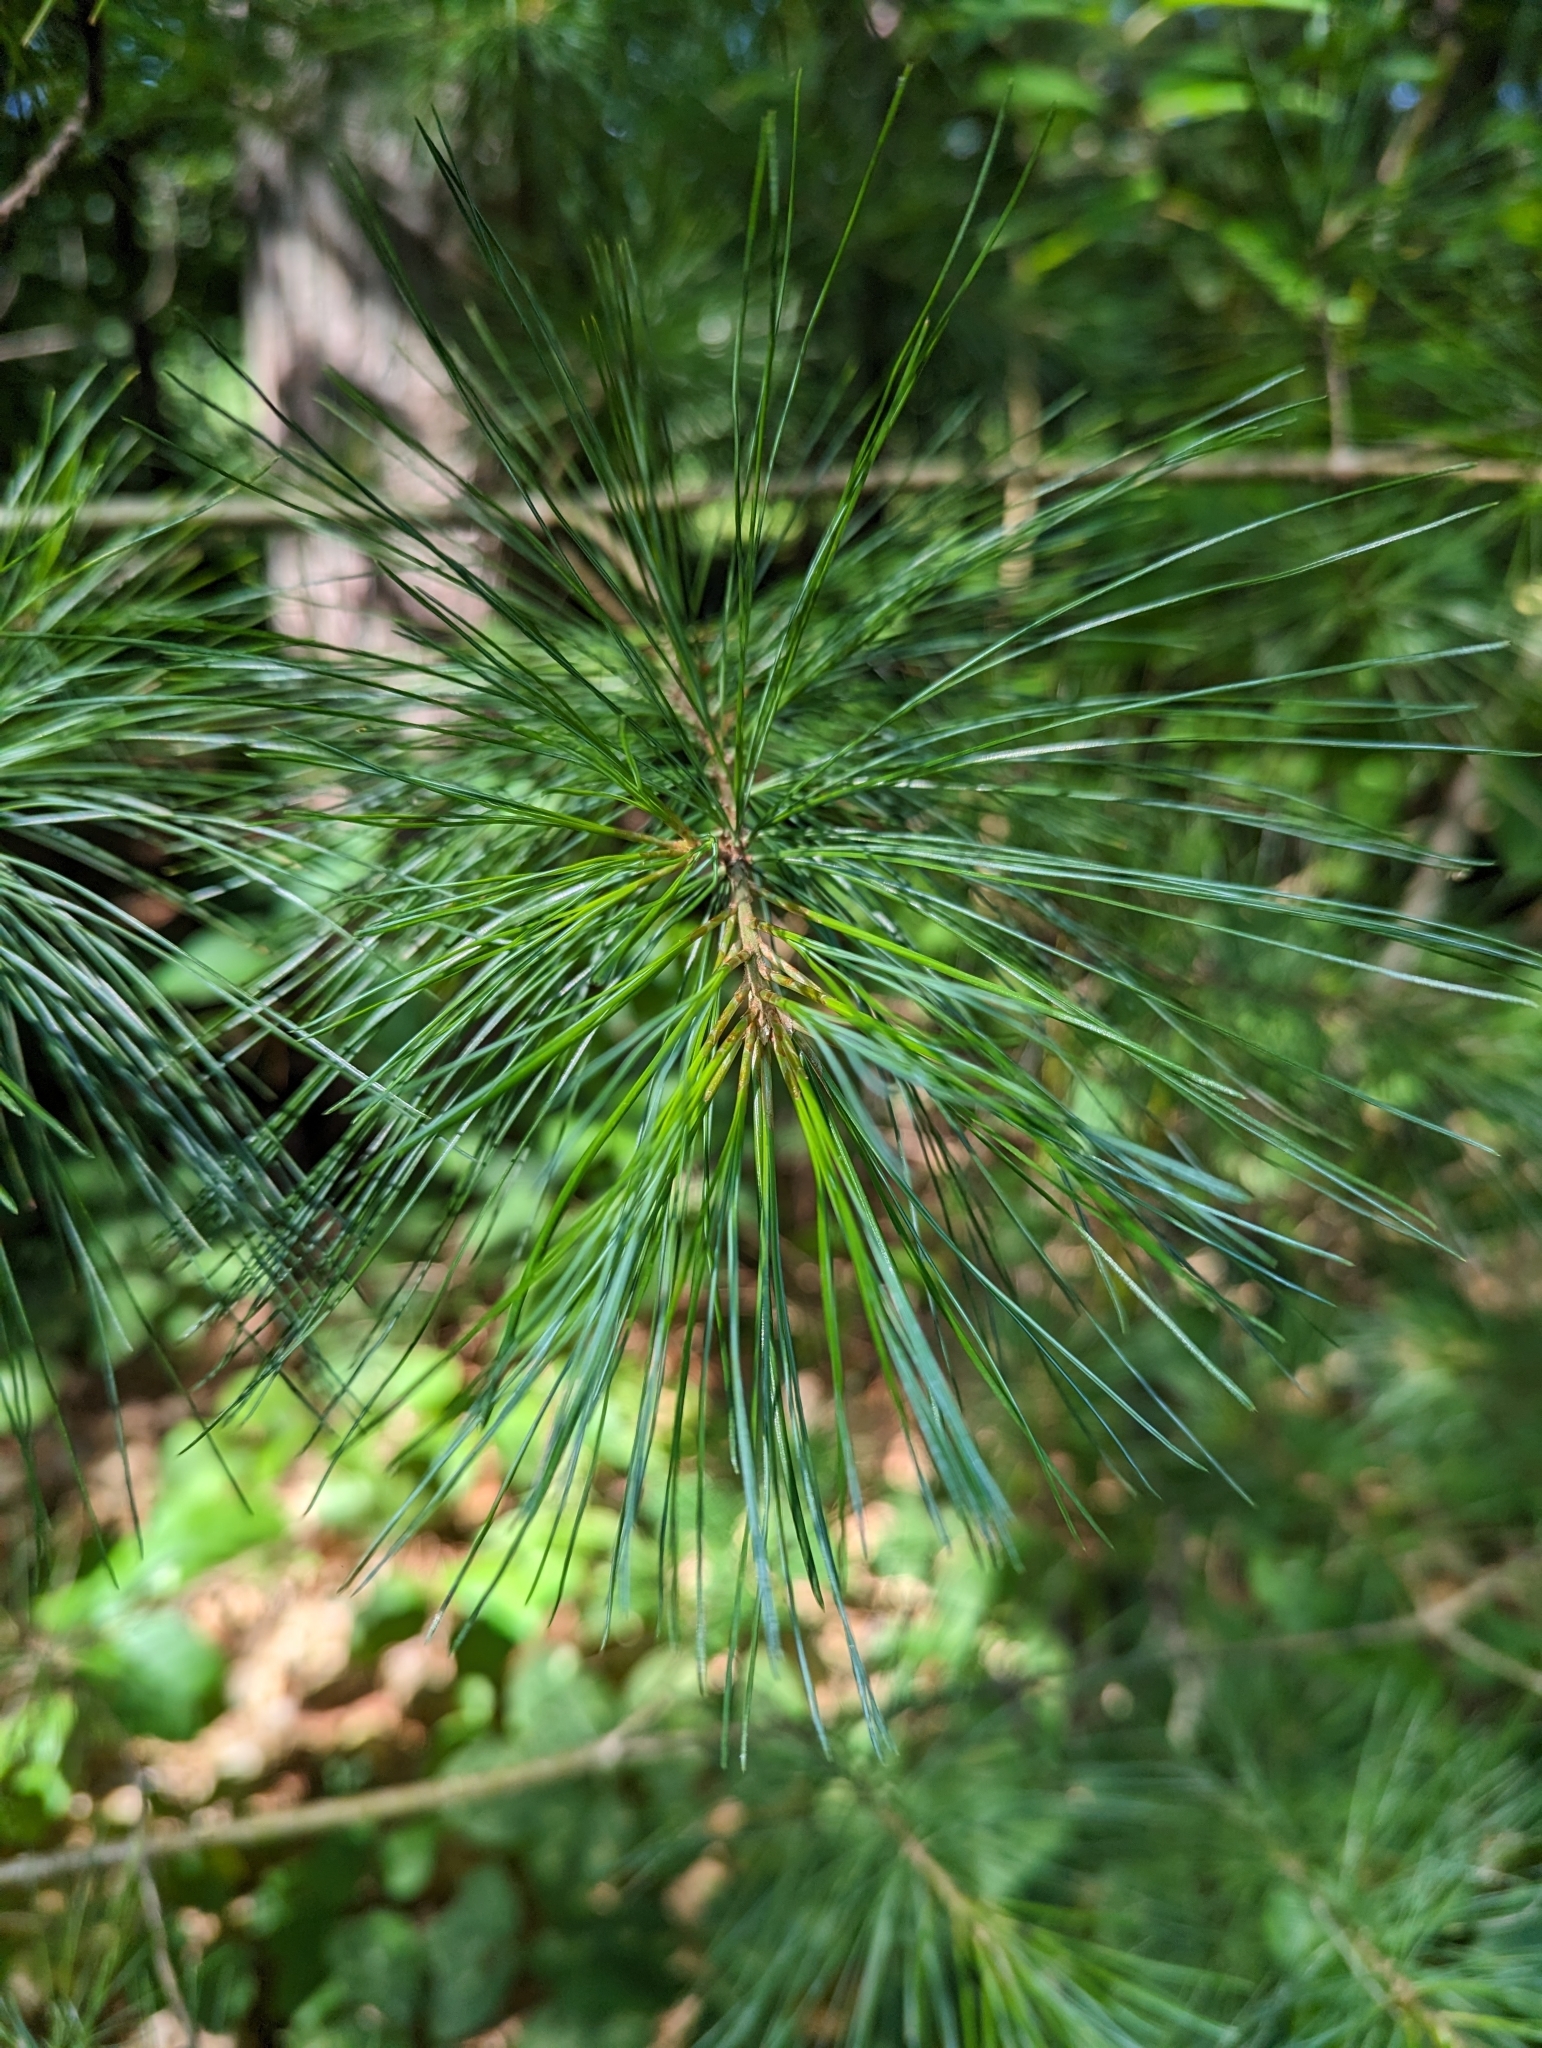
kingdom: Plantae
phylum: Tracheophyta
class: Pinopsida
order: Pinales
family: Pinaceae
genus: Pinus
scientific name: Pinus strobus
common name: Weymouth pine
